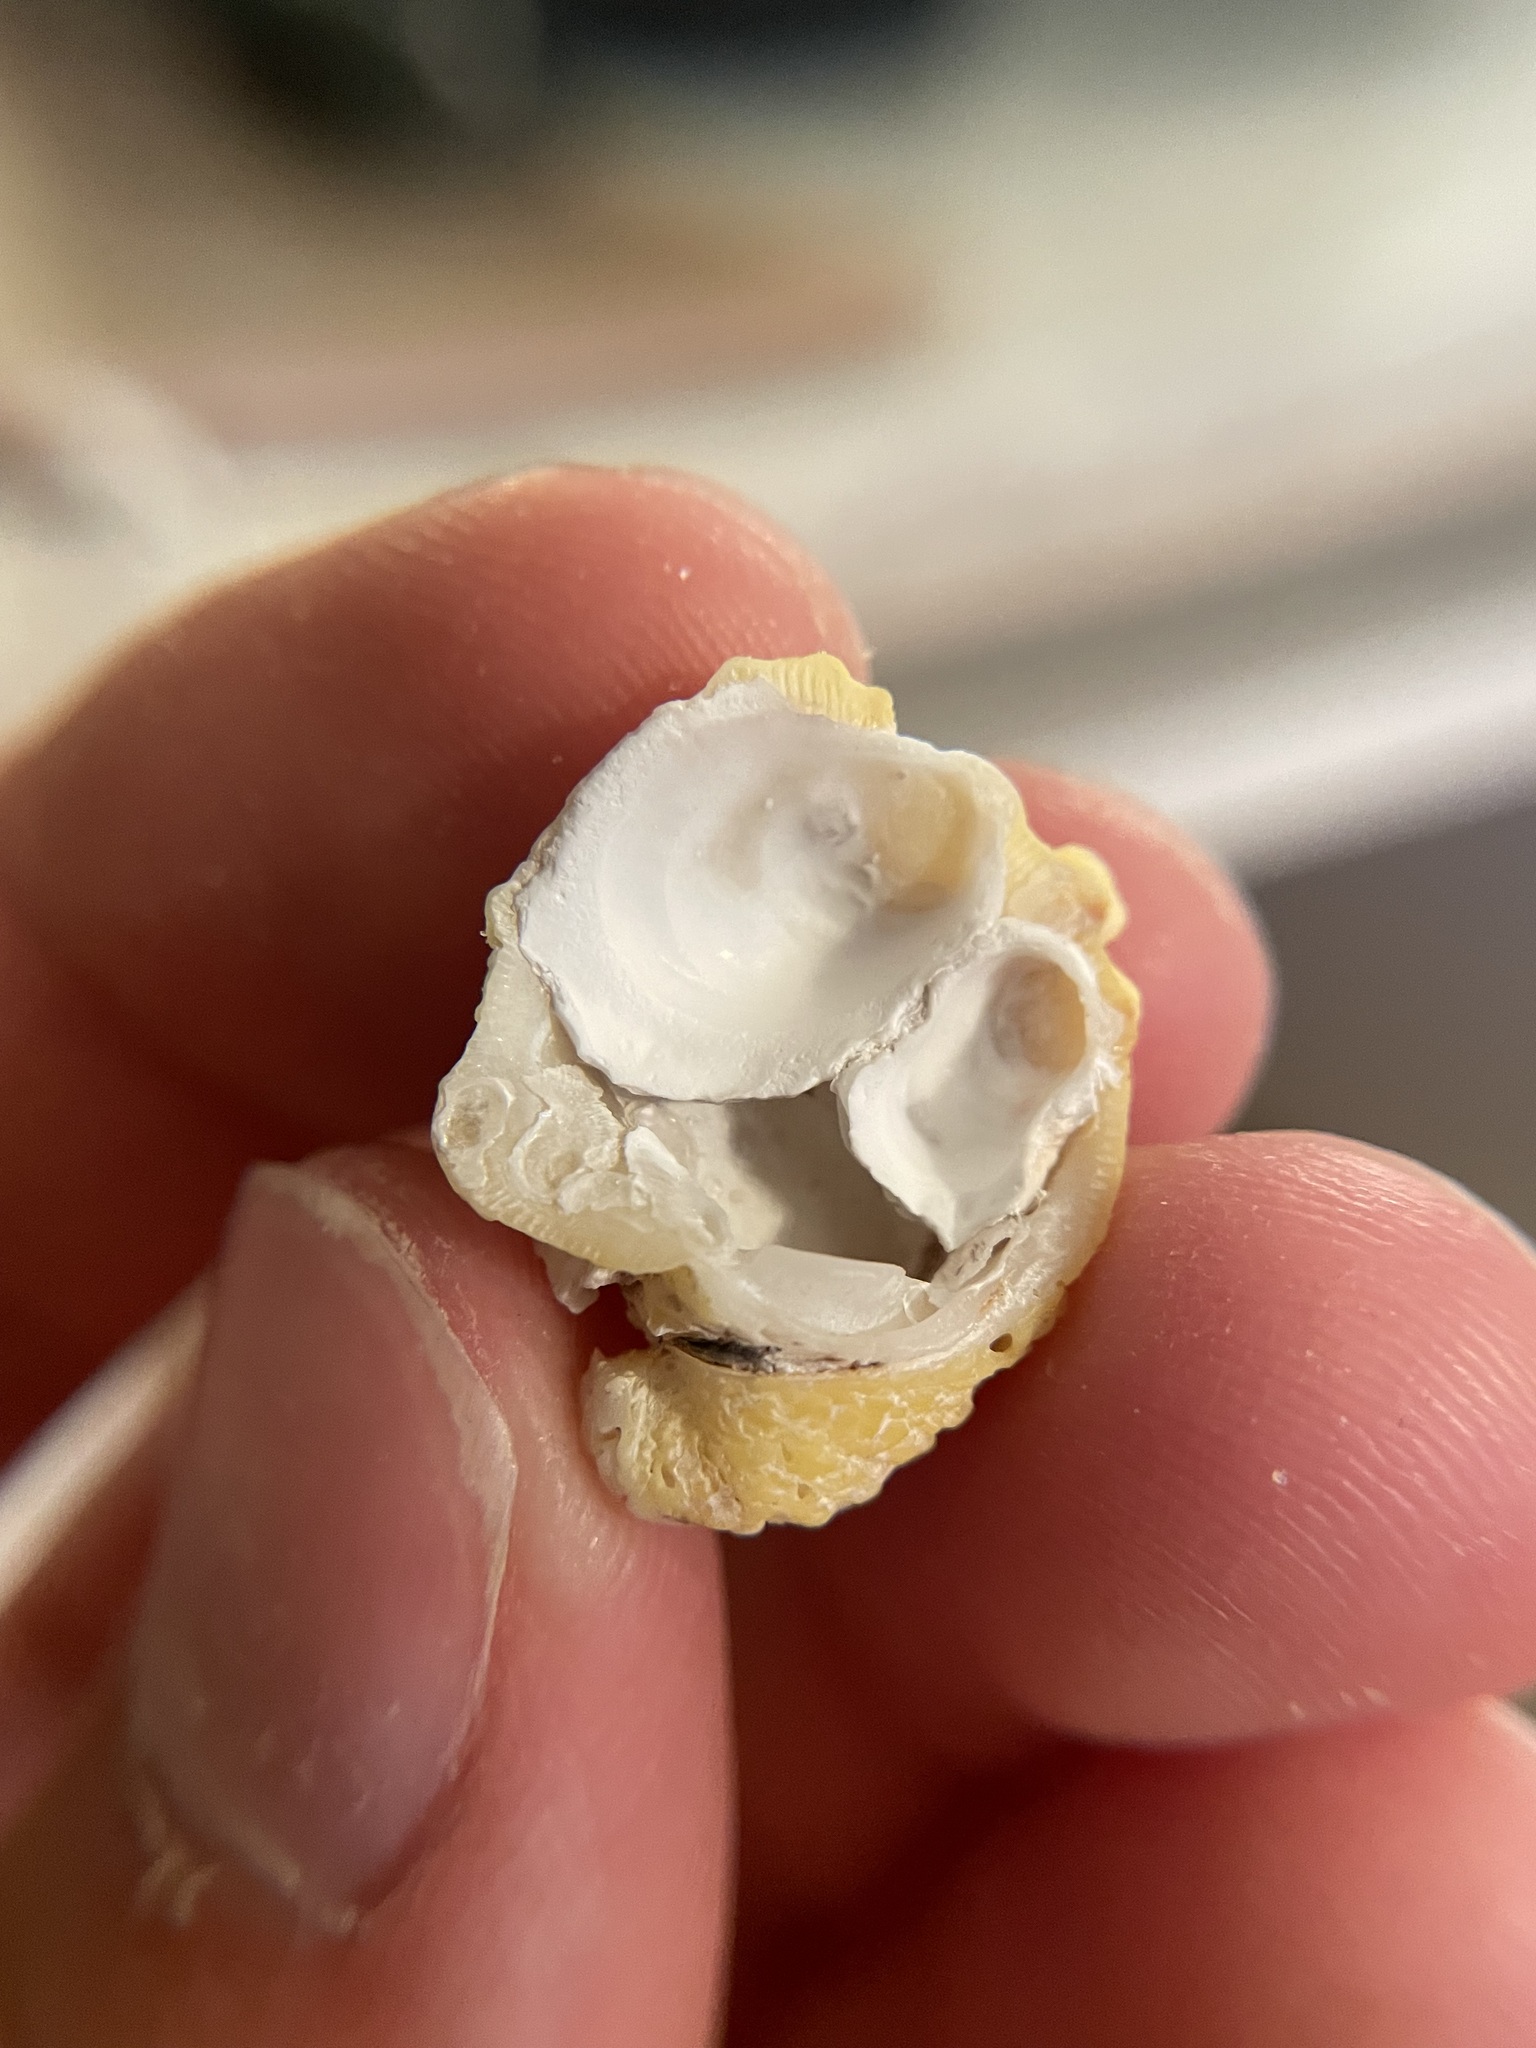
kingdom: Animalia
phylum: Mollusca
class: Bivalvia
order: Venerida
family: Chamidae
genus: Chama
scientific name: Chama macerophylla
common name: Leafy jewelbox
